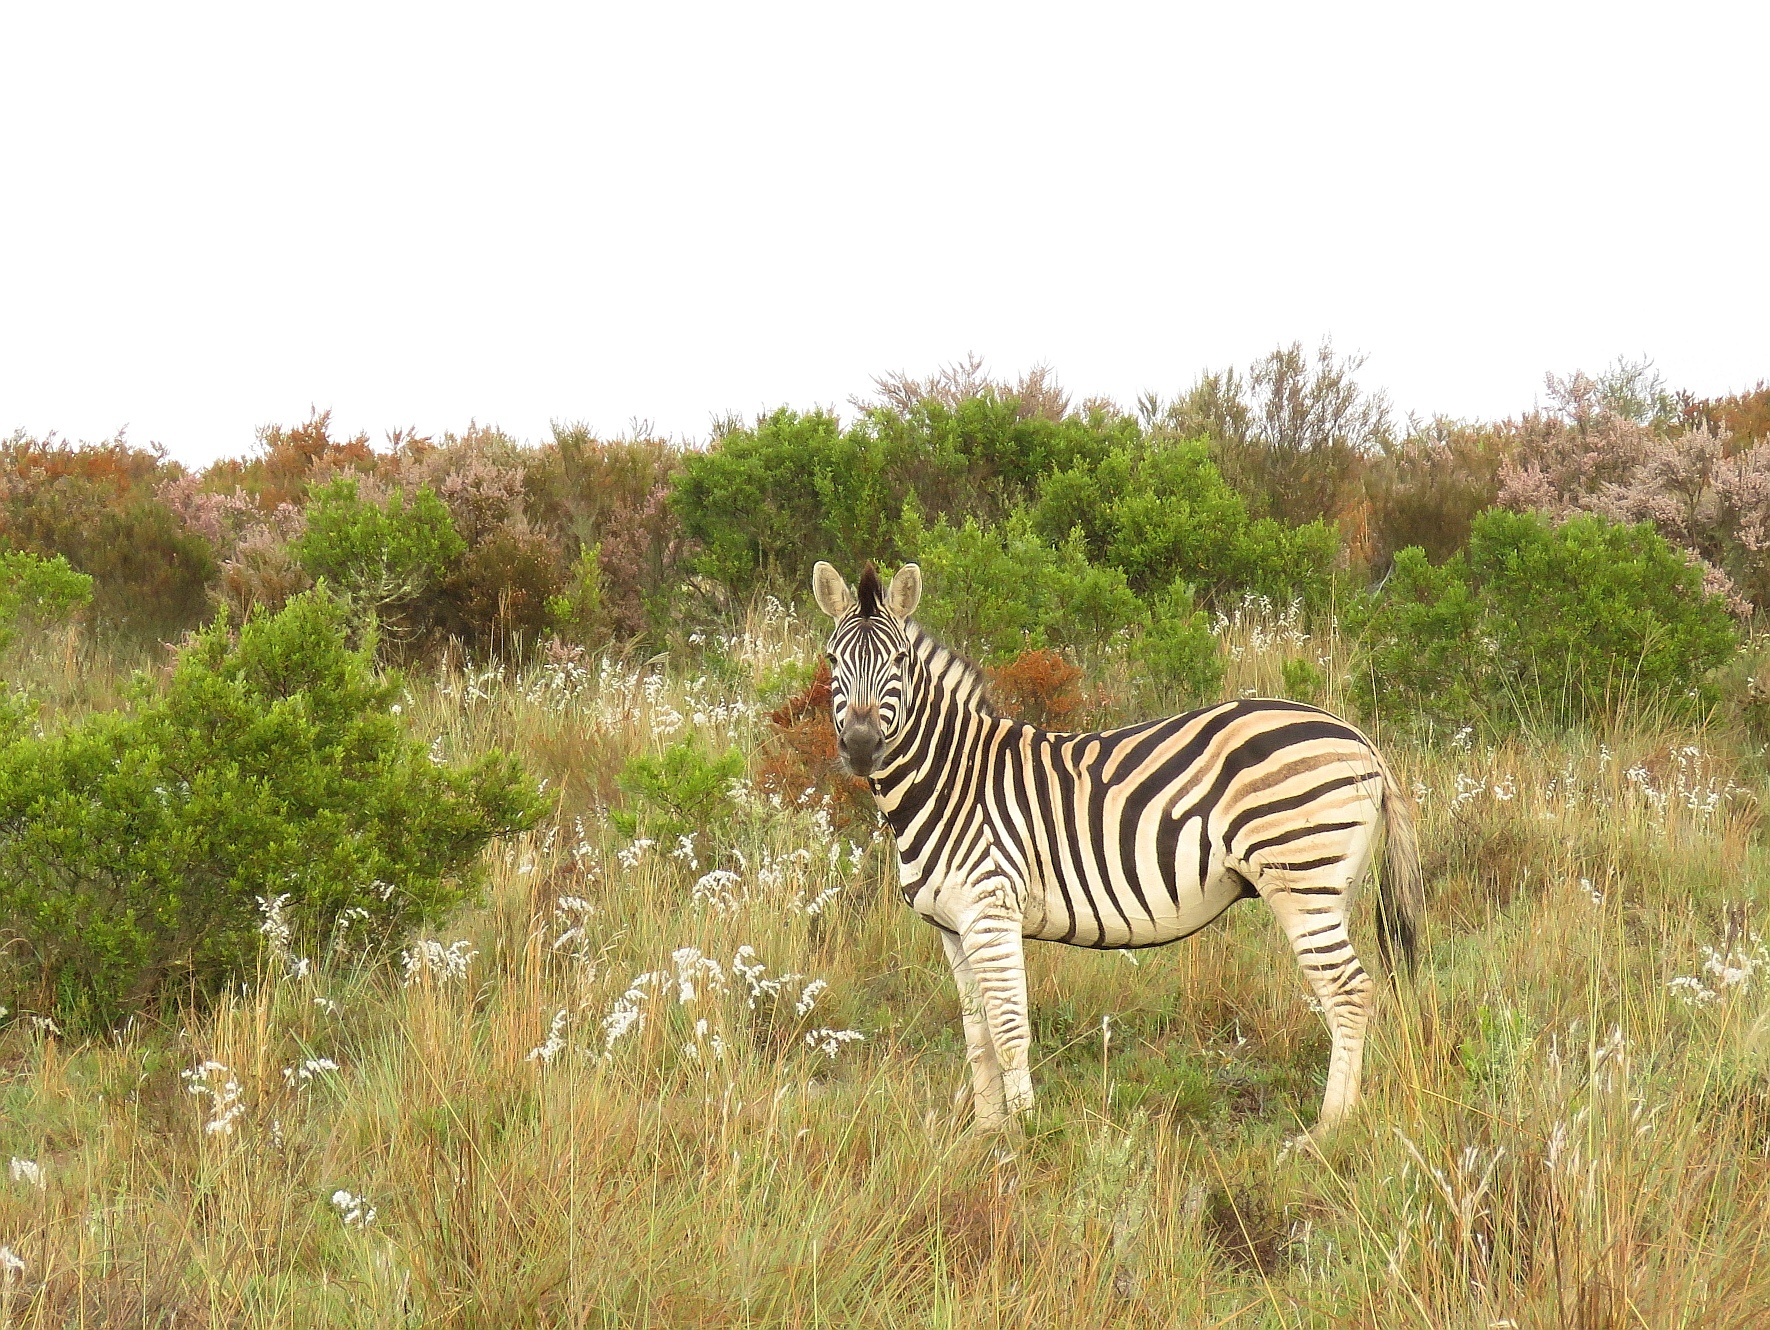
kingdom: Animalia
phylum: Chordata
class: Mammalia
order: Perissodactyla
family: Equidae
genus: Equus
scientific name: Equus quagga
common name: Plains zebra
